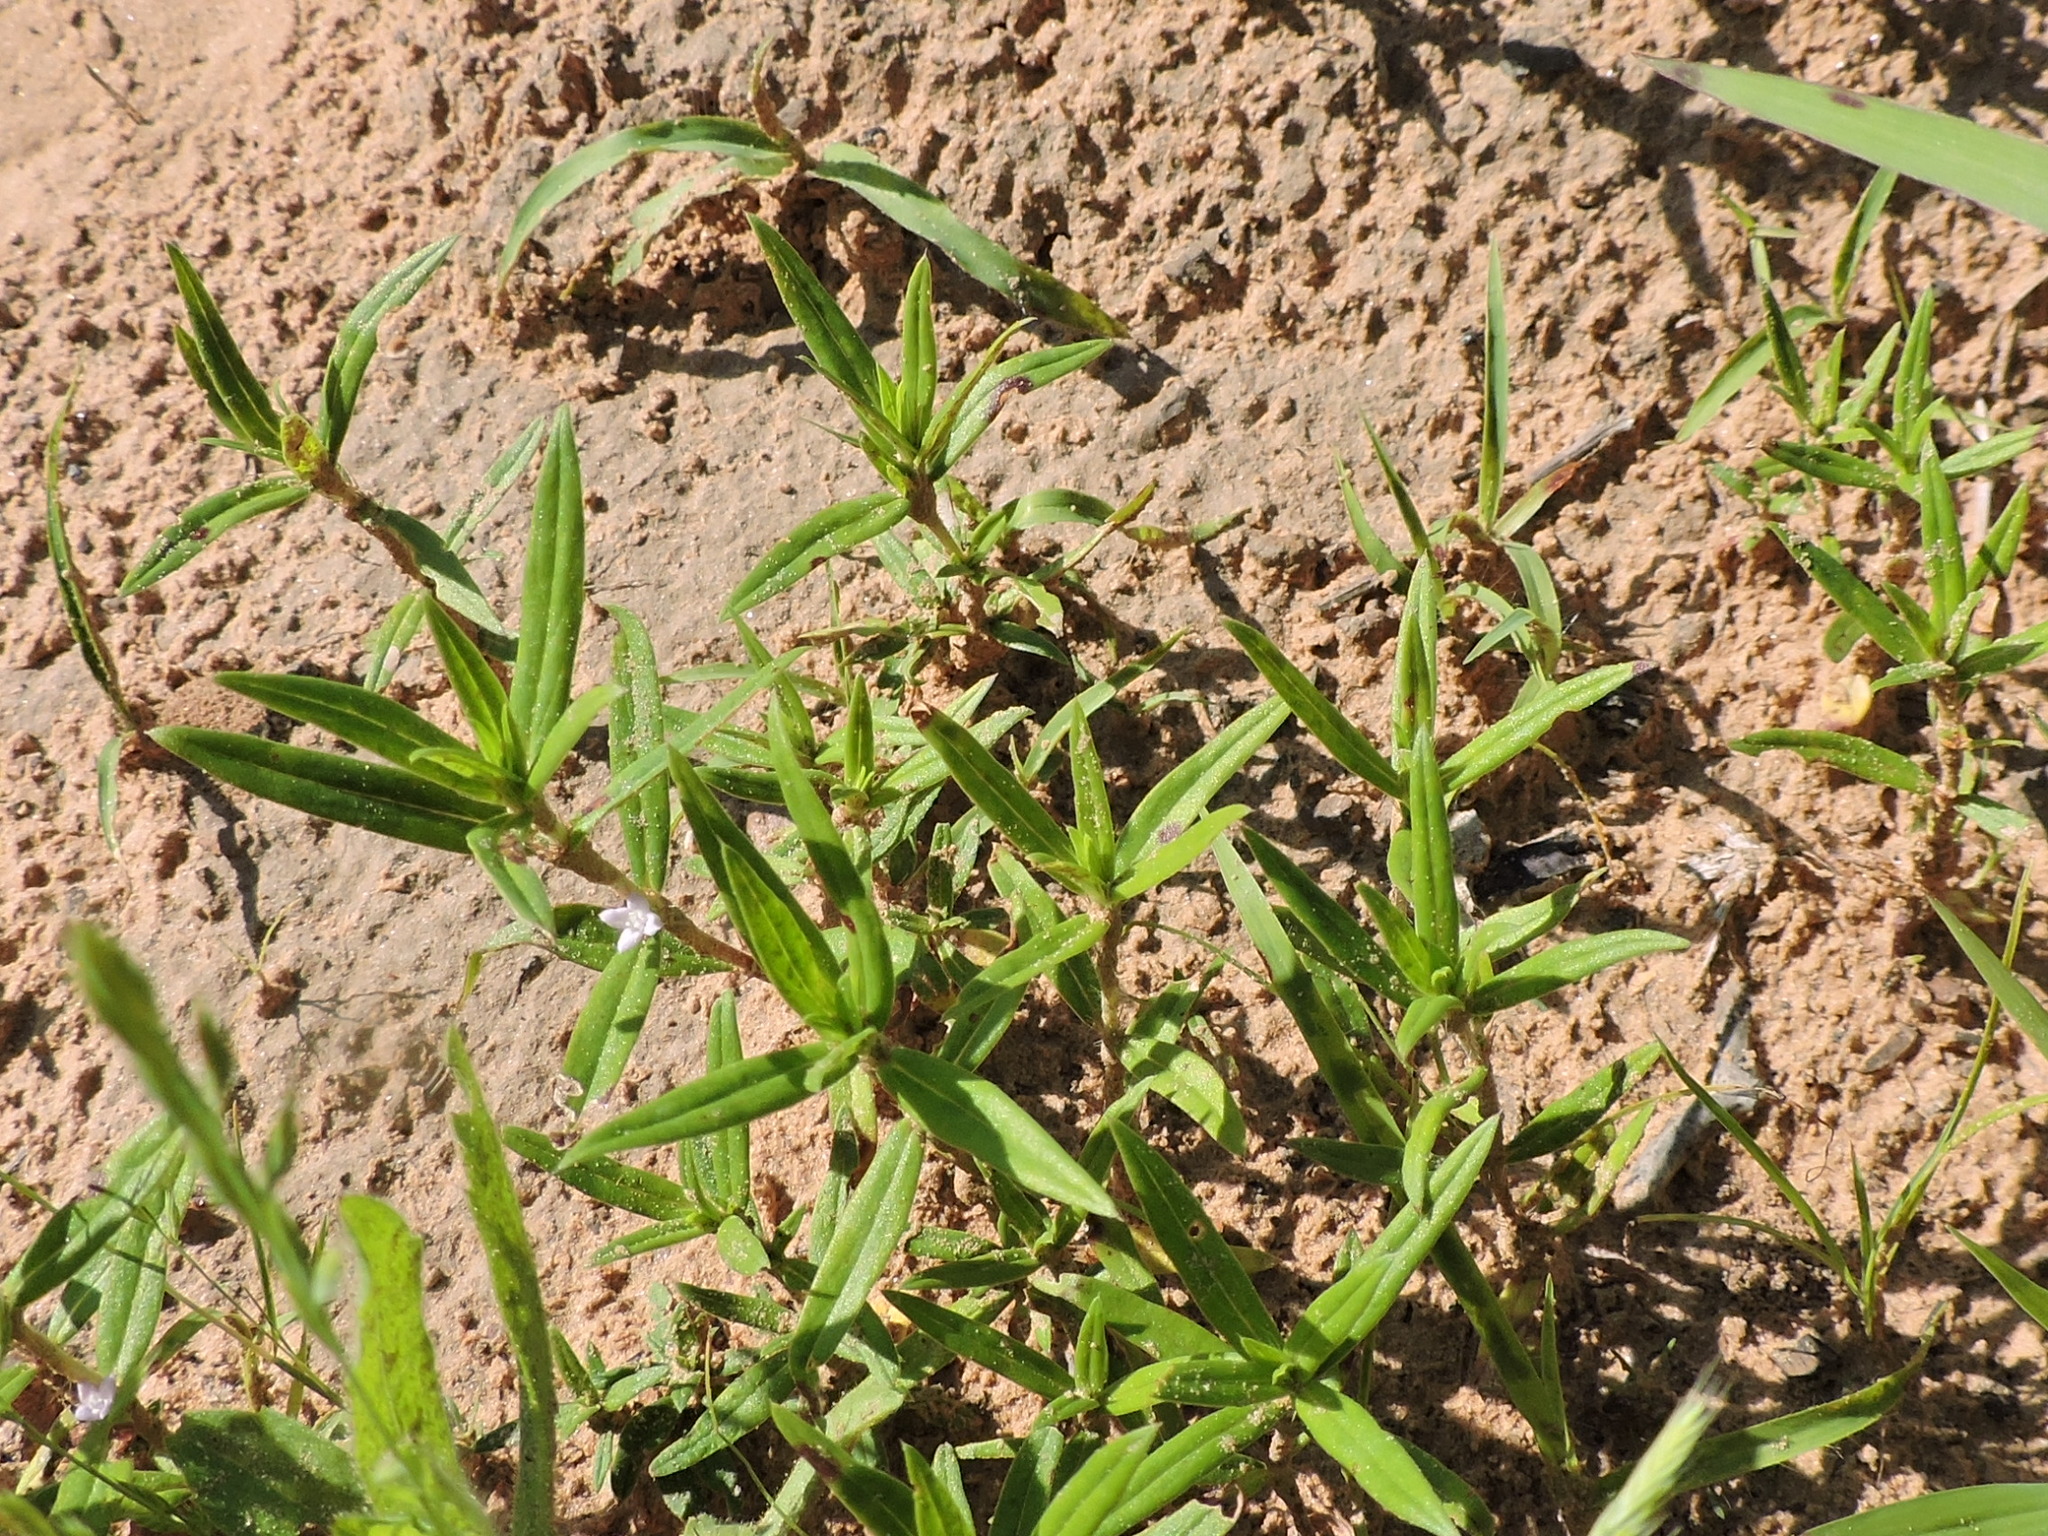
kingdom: Plantae
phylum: Tracheophyta
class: Magnoliopsida
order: Gentianales
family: Rubiaceae
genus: Hexasepalum
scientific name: Hexasepalum teres
